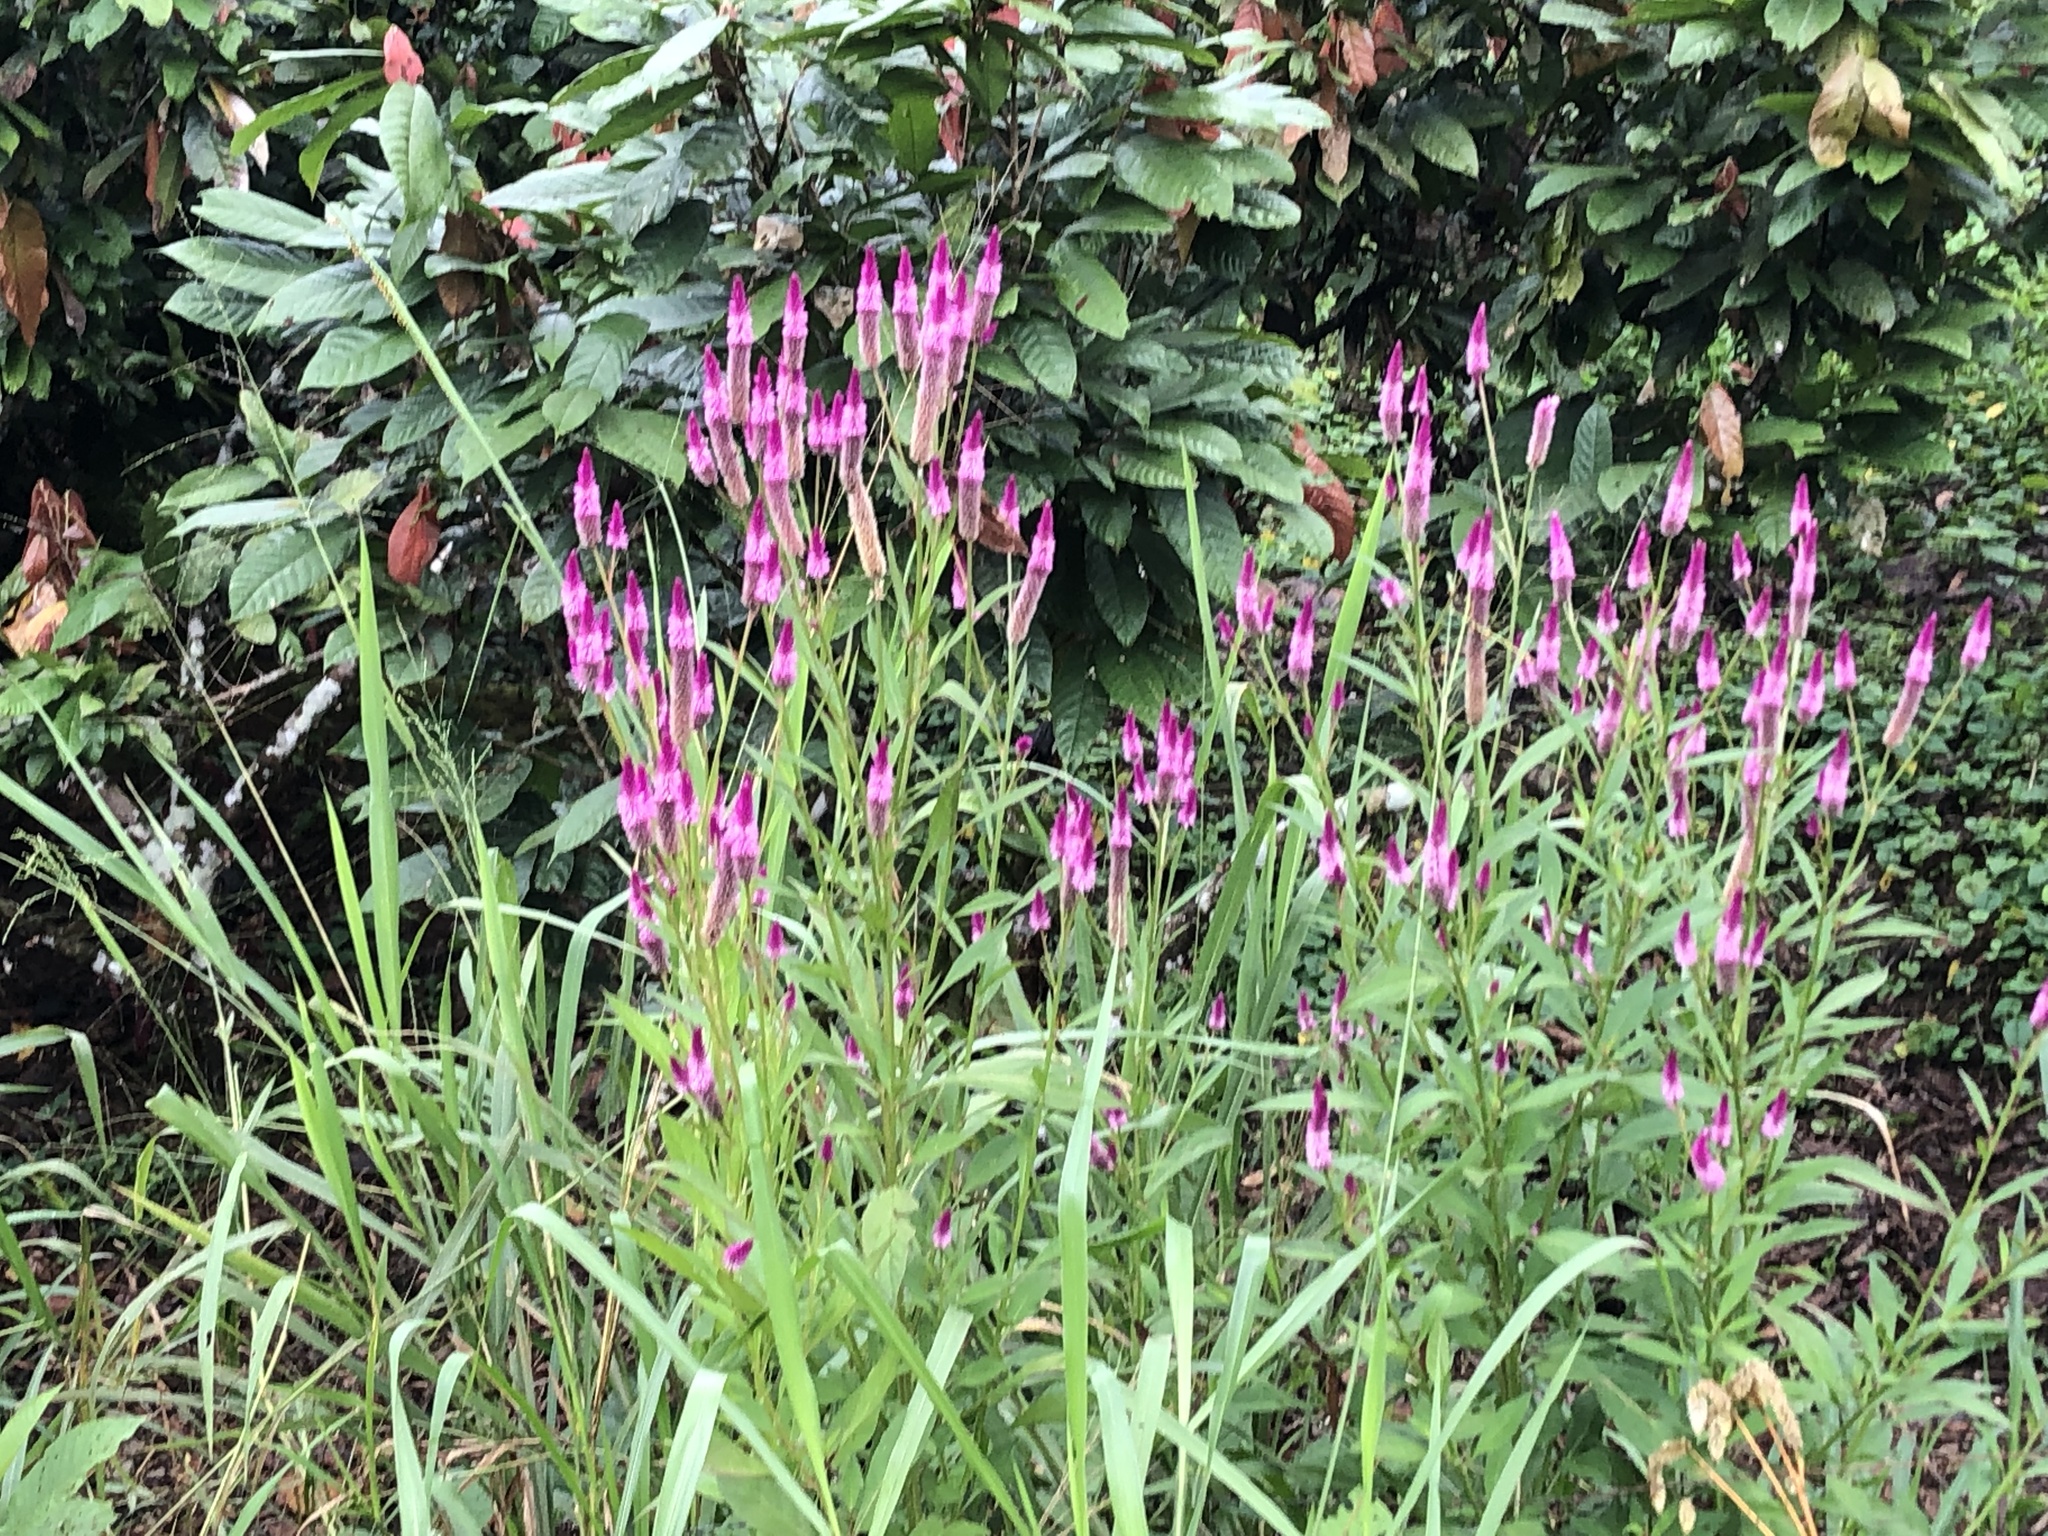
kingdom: Plantae
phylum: Tracheophyta
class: Magnoliopsida
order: Caryophyllales
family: Amaranthaceae
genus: Celosia
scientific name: Celosia argentea
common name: Feather cockscomb
